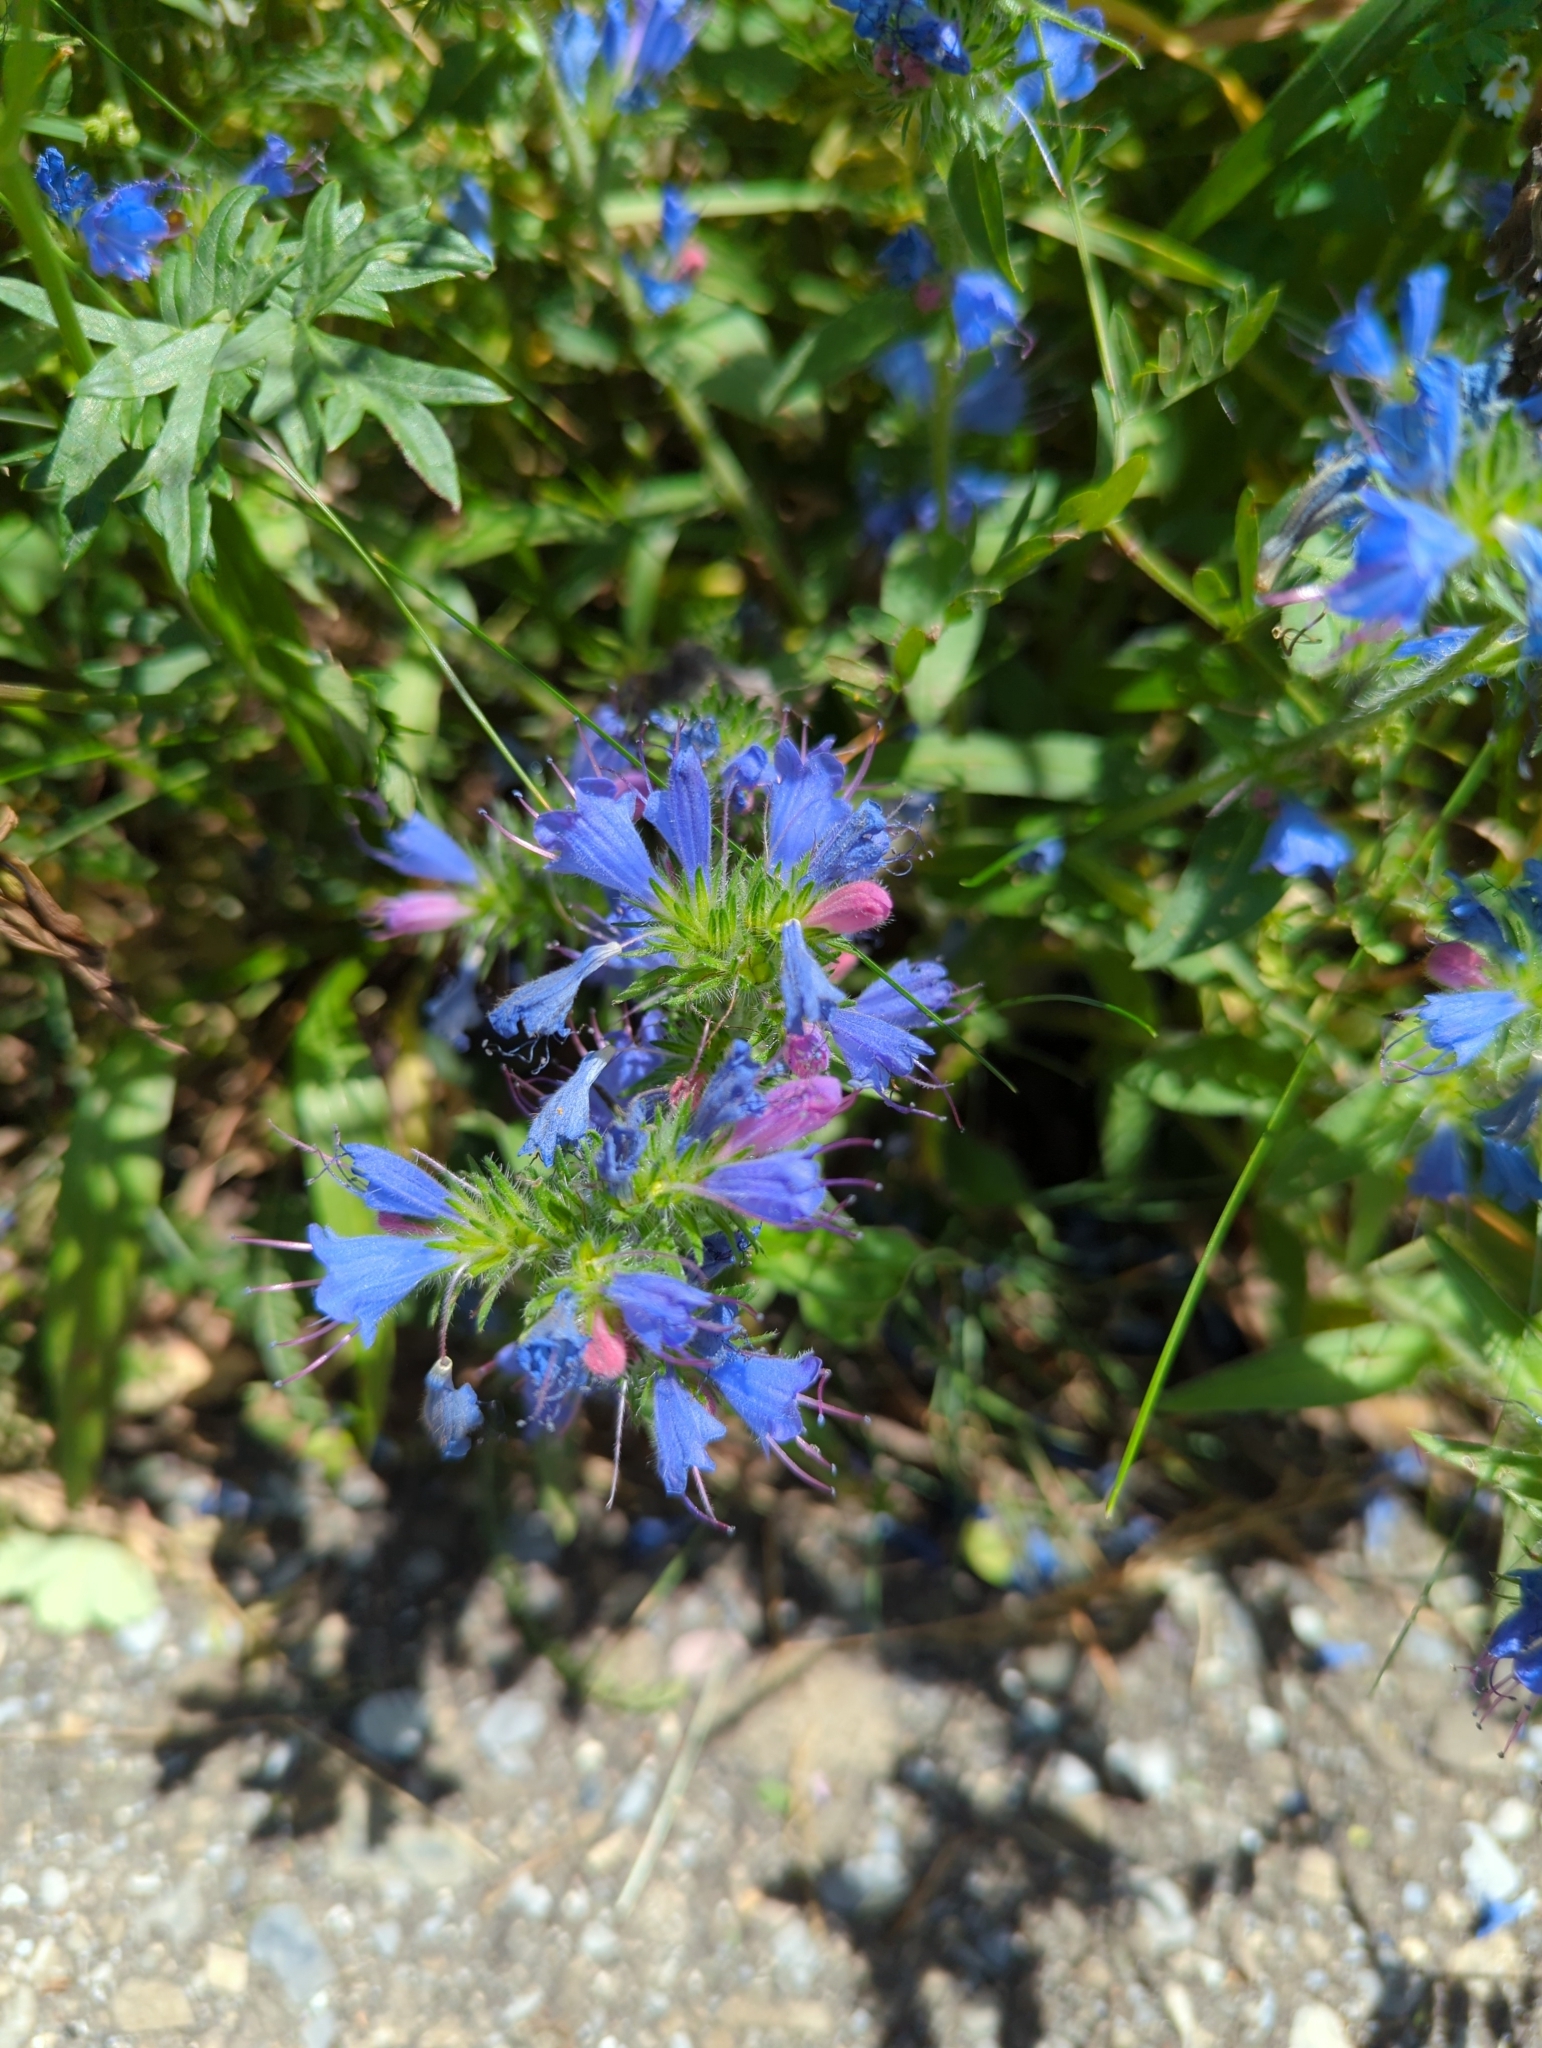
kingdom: Plantae
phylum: Tracheophyta
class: Magnoliopsida
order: Boraginales
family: Boraginaceae
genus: Echium
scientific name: Echium vulgare
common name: Common viper's bugloss
